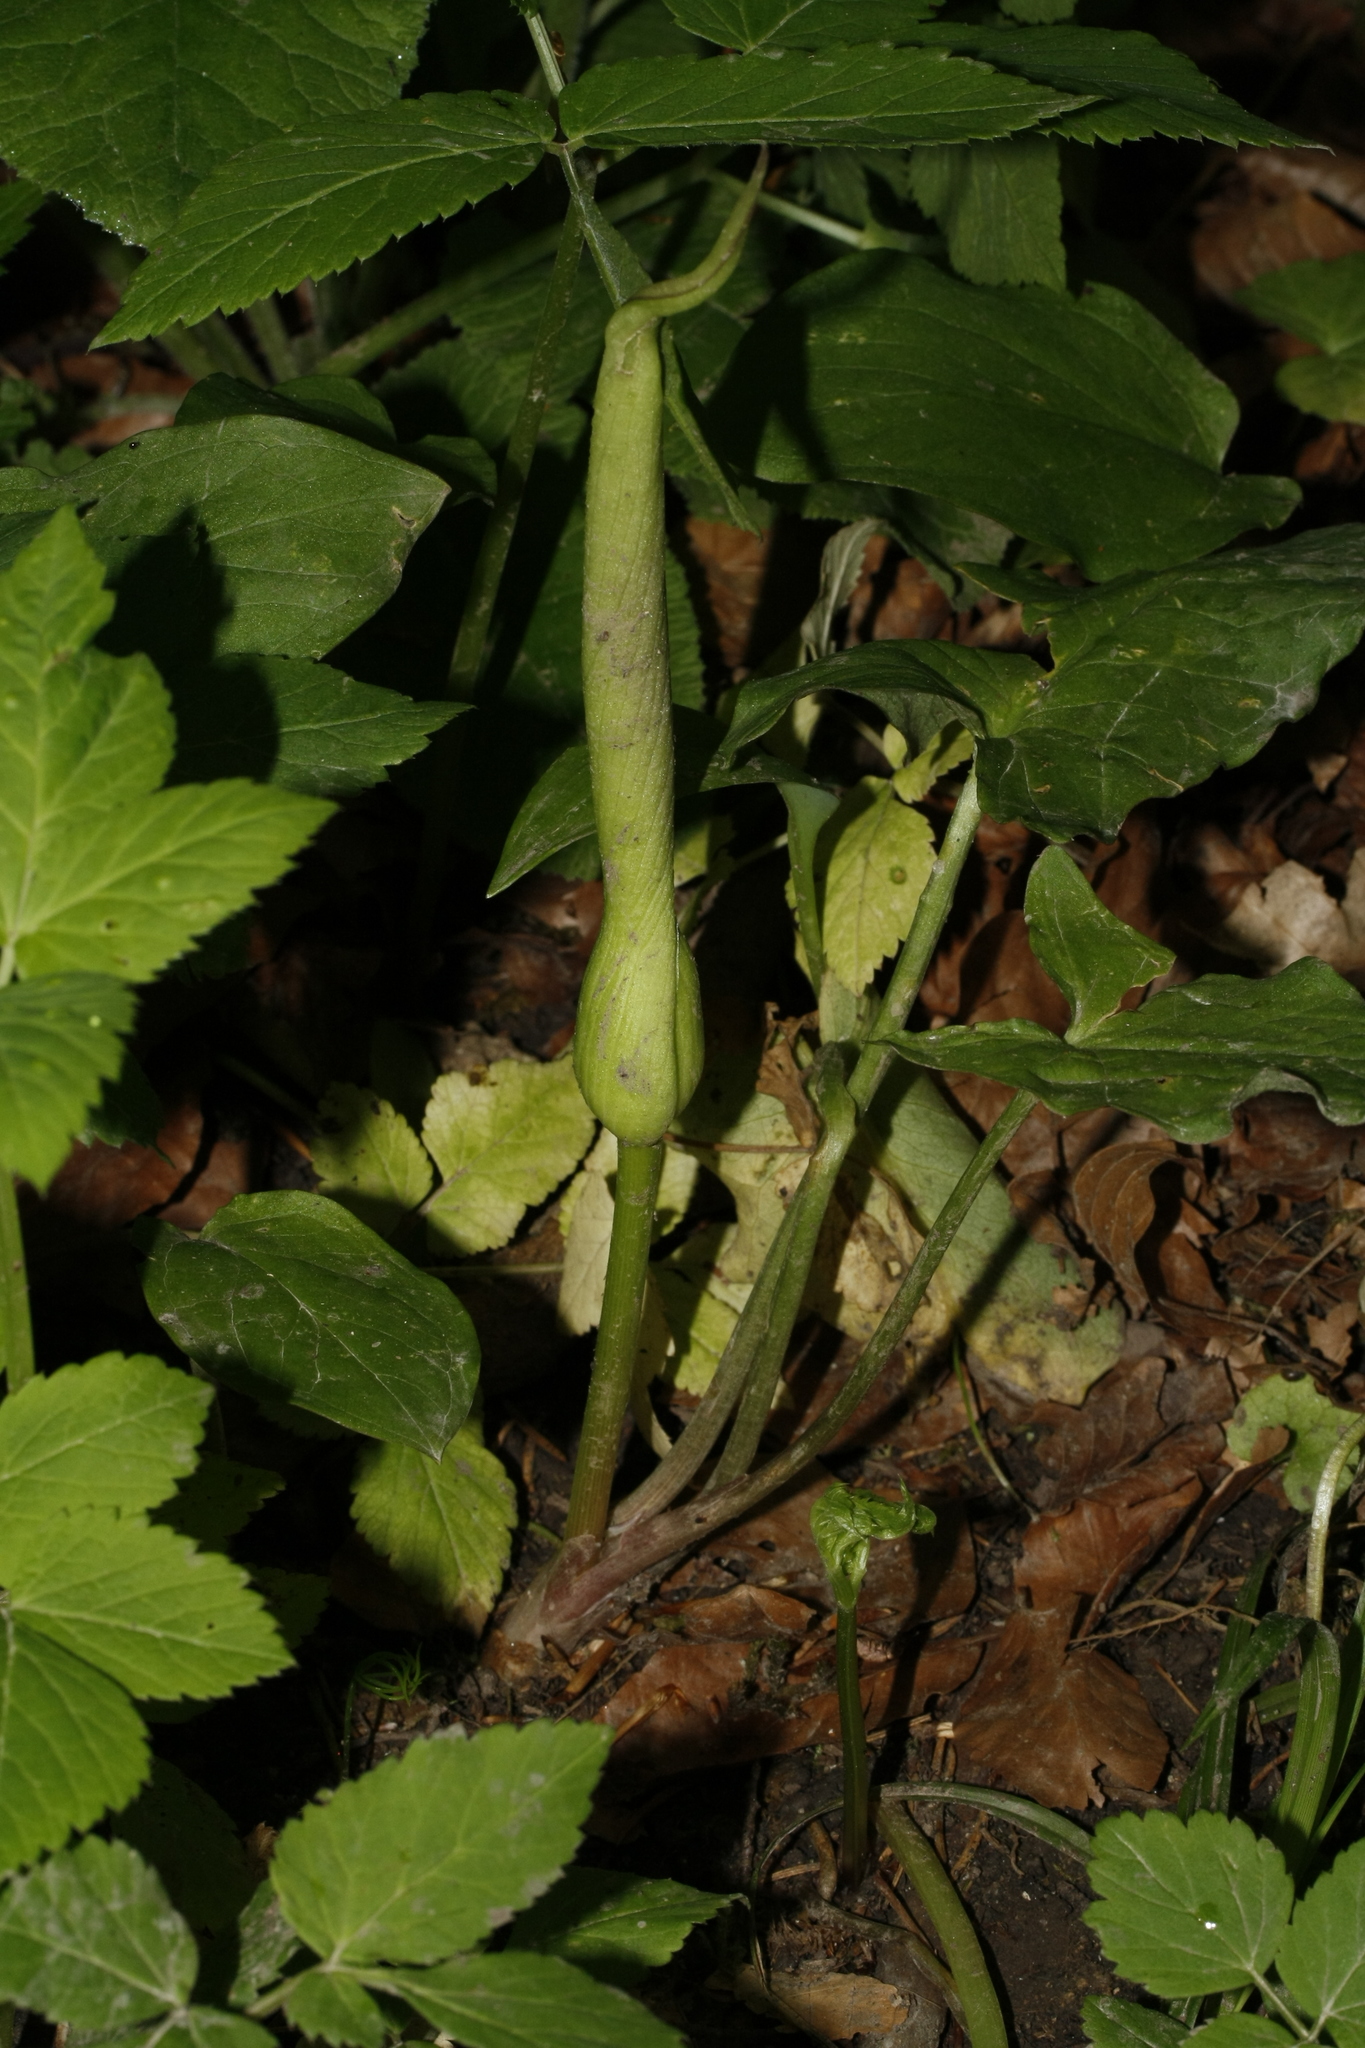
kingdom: Plantae
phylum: Tracheophyta
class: Liliopsida
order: Alismatales
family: Araceae
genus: Arum
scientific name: Arum maculatum
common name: Lords-and-ladies
